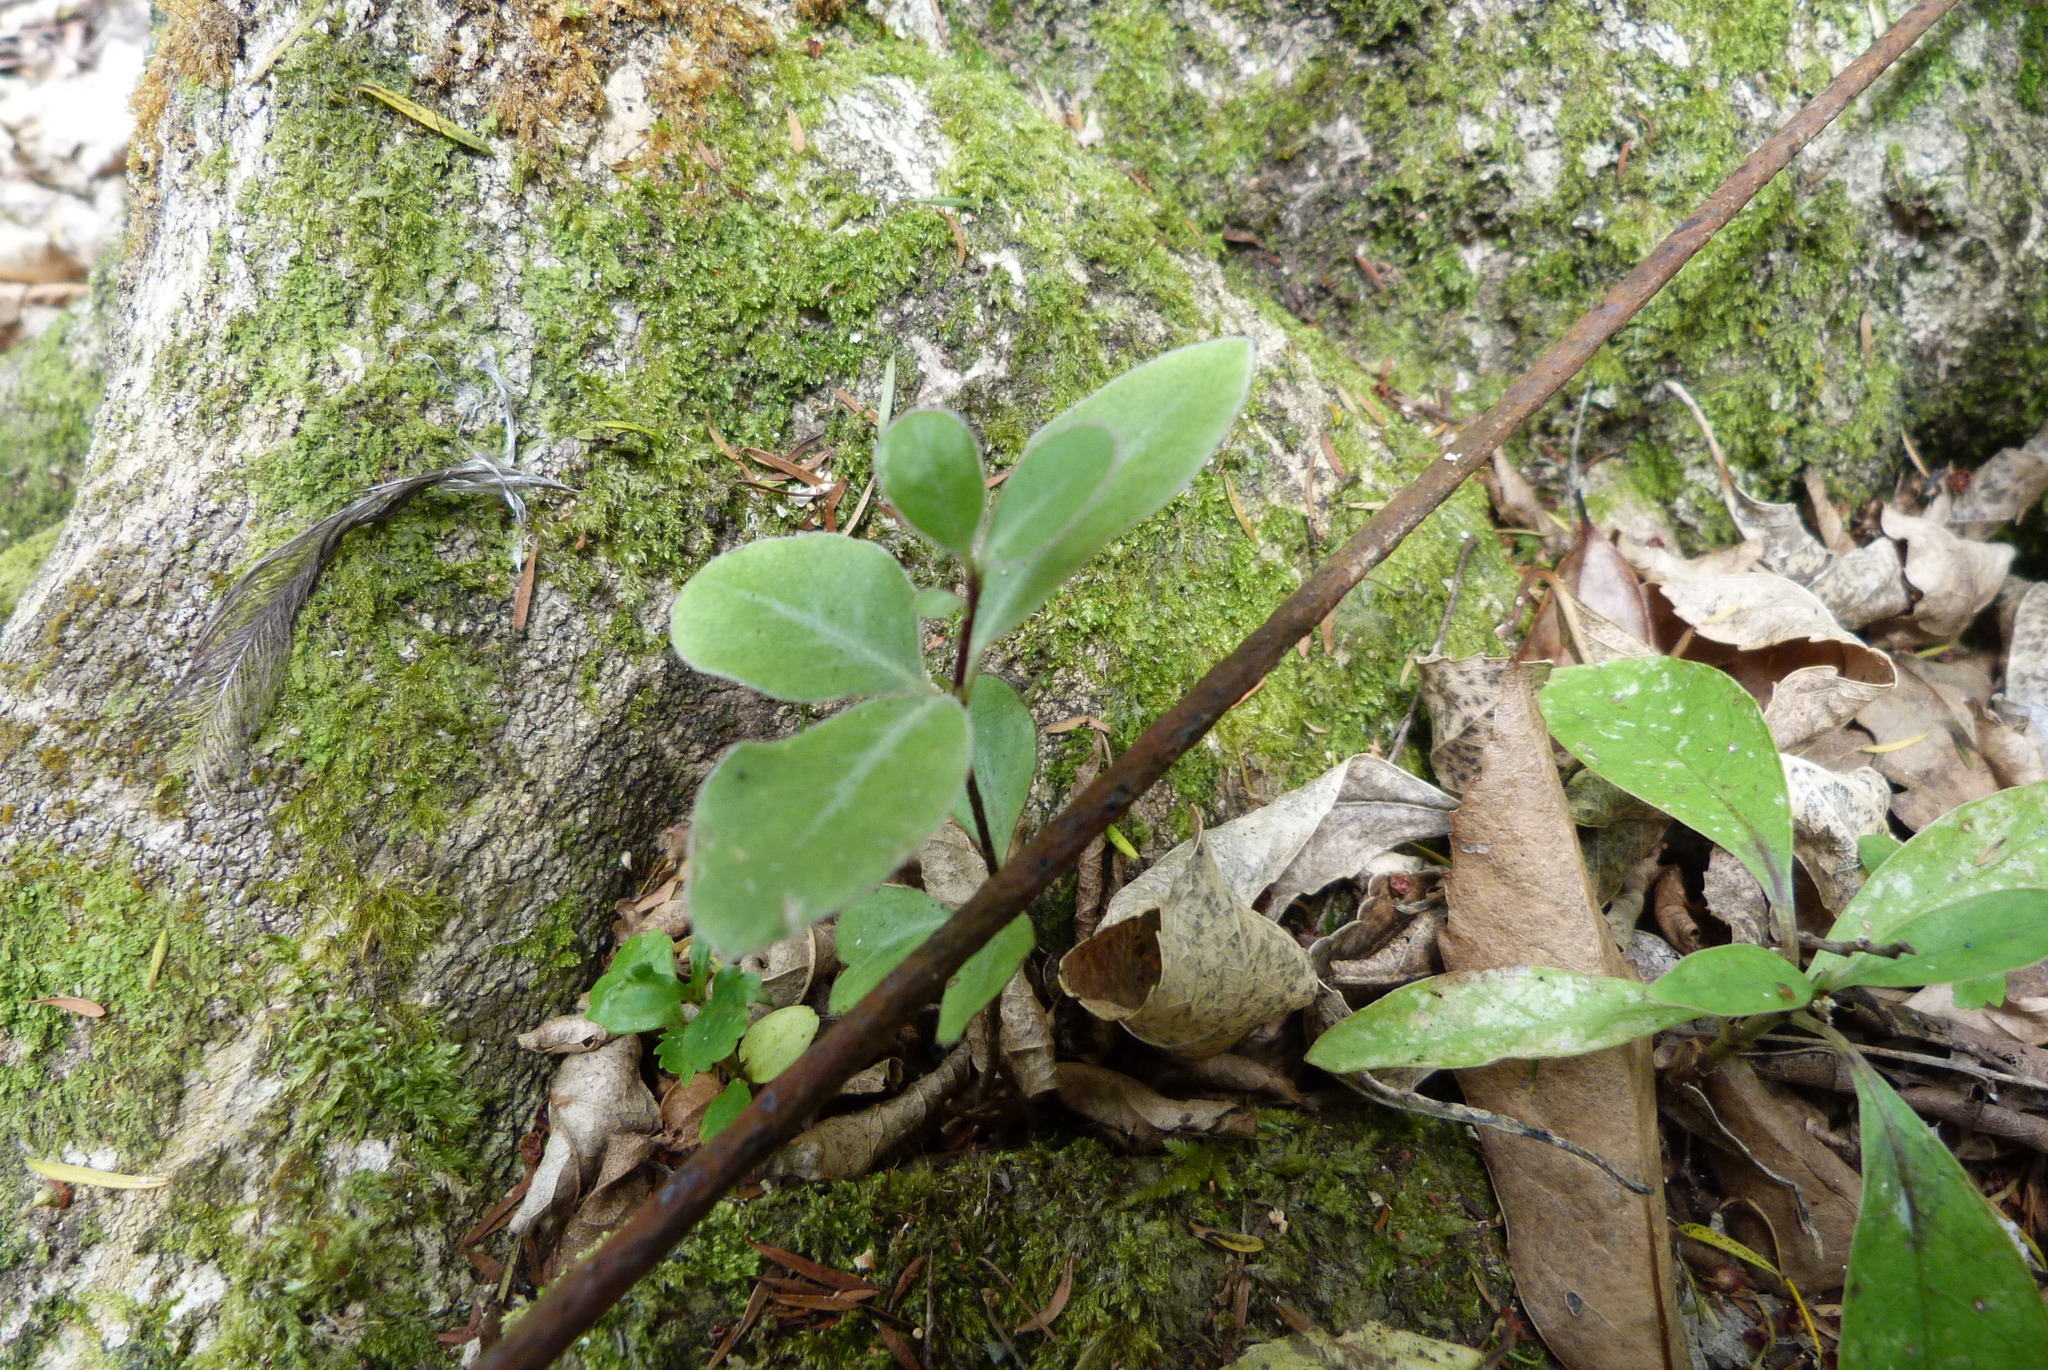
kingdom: Plantae
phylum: Tracheophyta
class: Magnoliopsida
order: Apiales
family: Pittosporaceae
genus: Pittosporum
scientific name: Pittosporum tenuifolium
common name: Kohuhu
